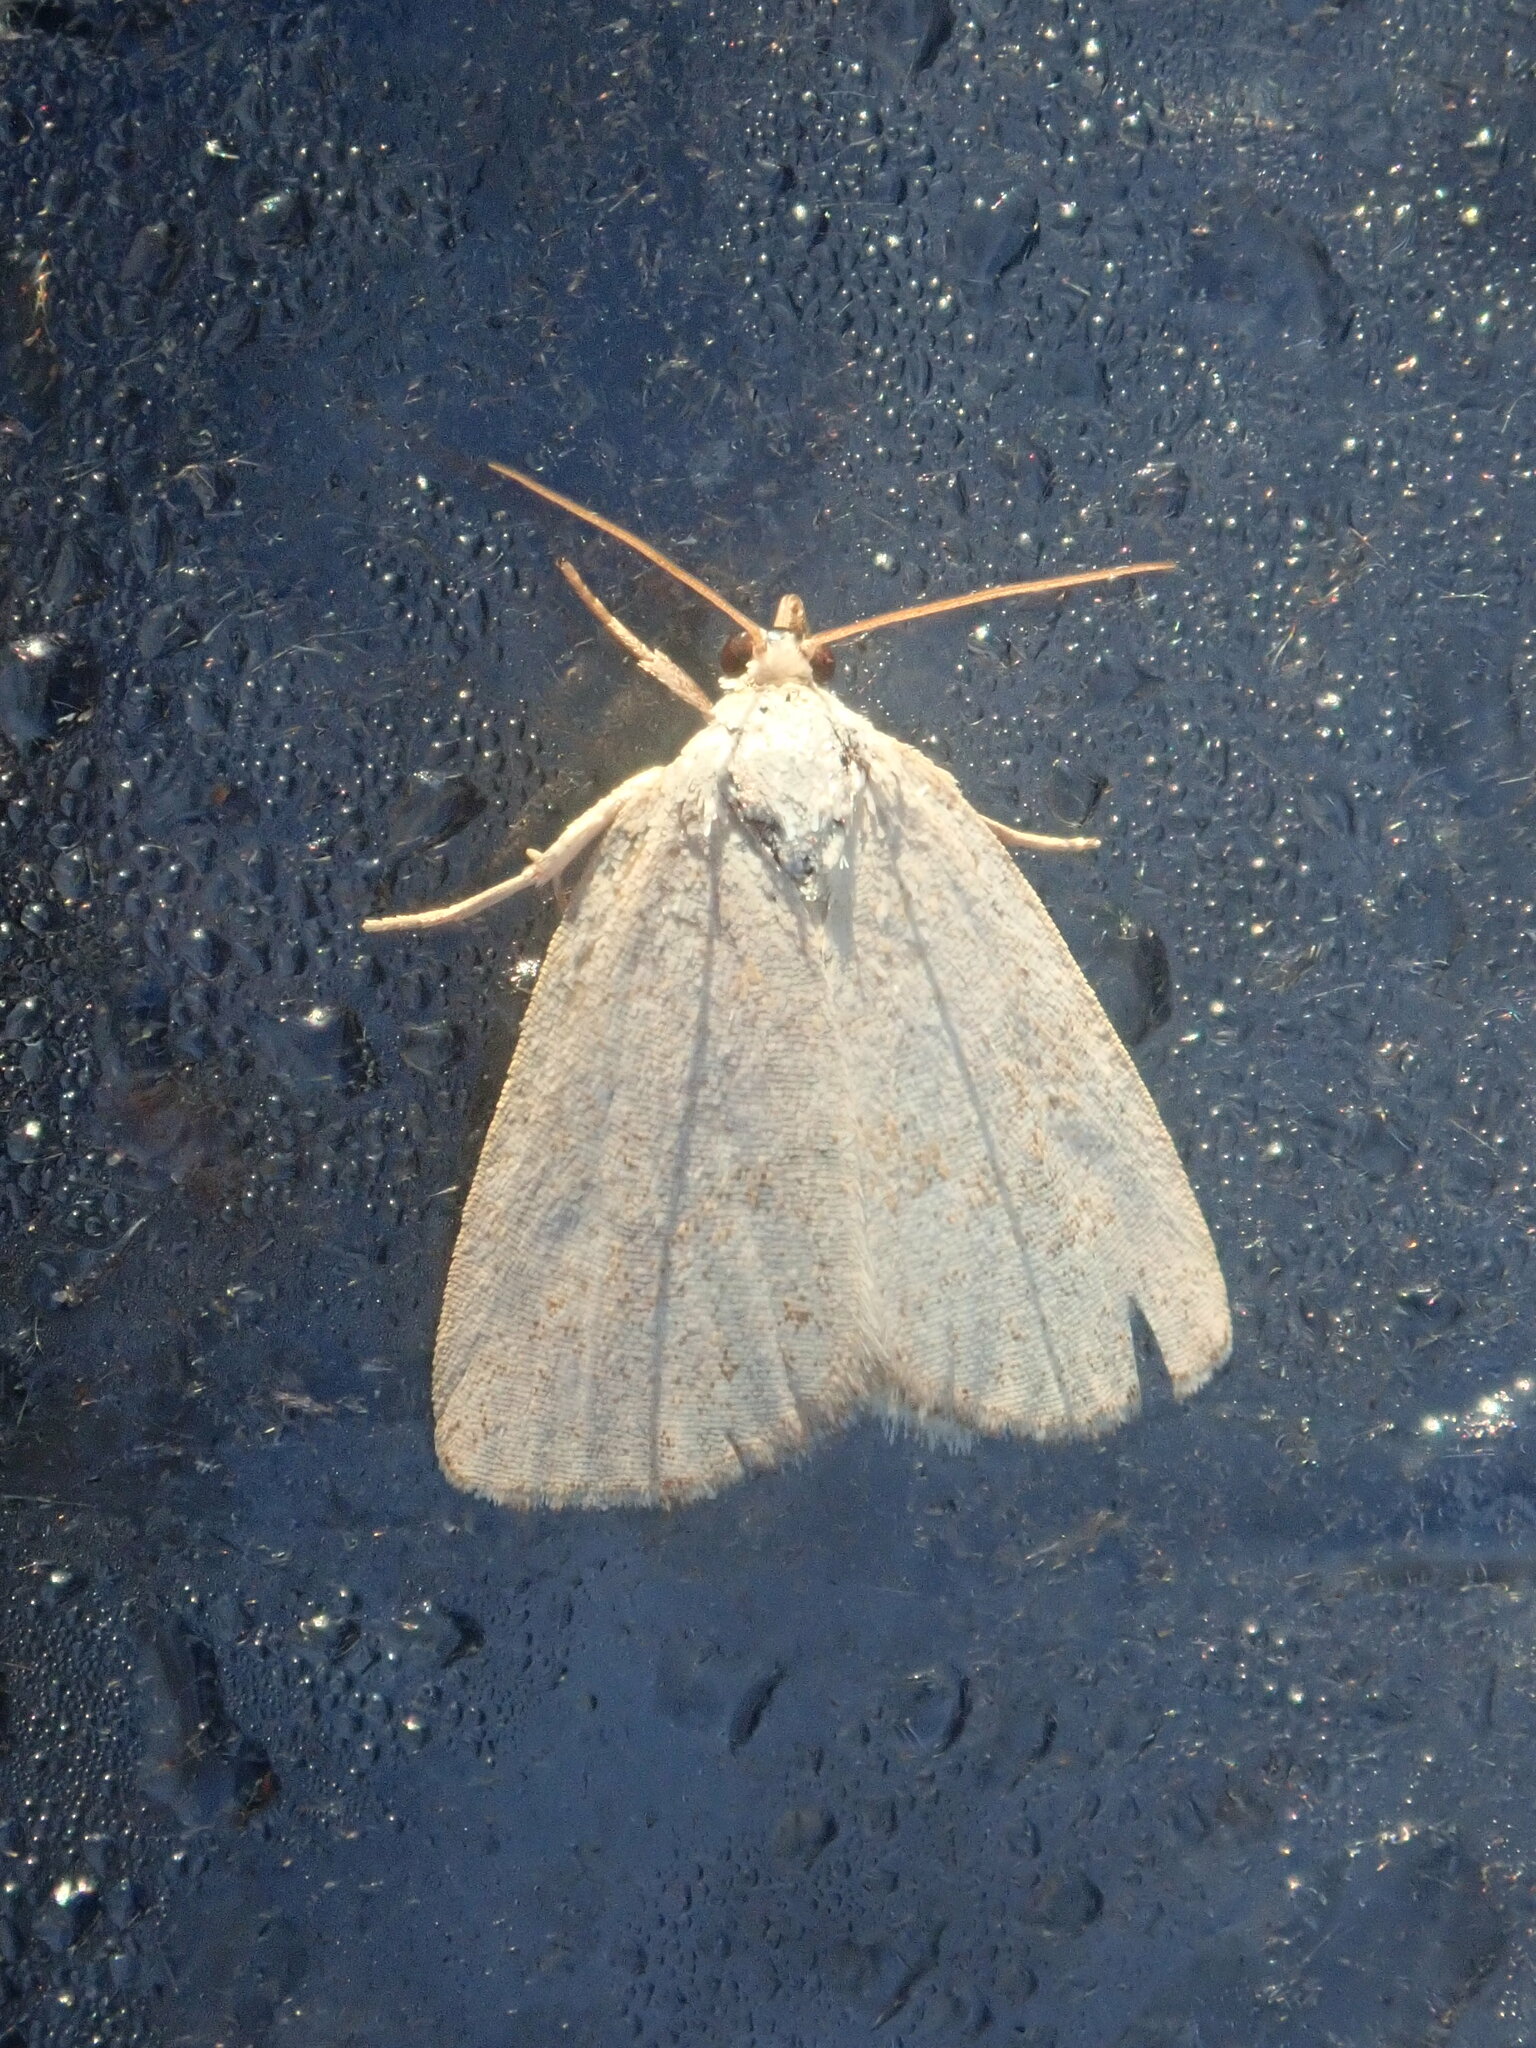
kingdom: Animalia
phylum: Arthropoda
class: Insecta
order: Lepidoptera
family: Noctuidae
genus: Protodeltote
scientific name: Protodeltote albidula
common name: Pale glyph
